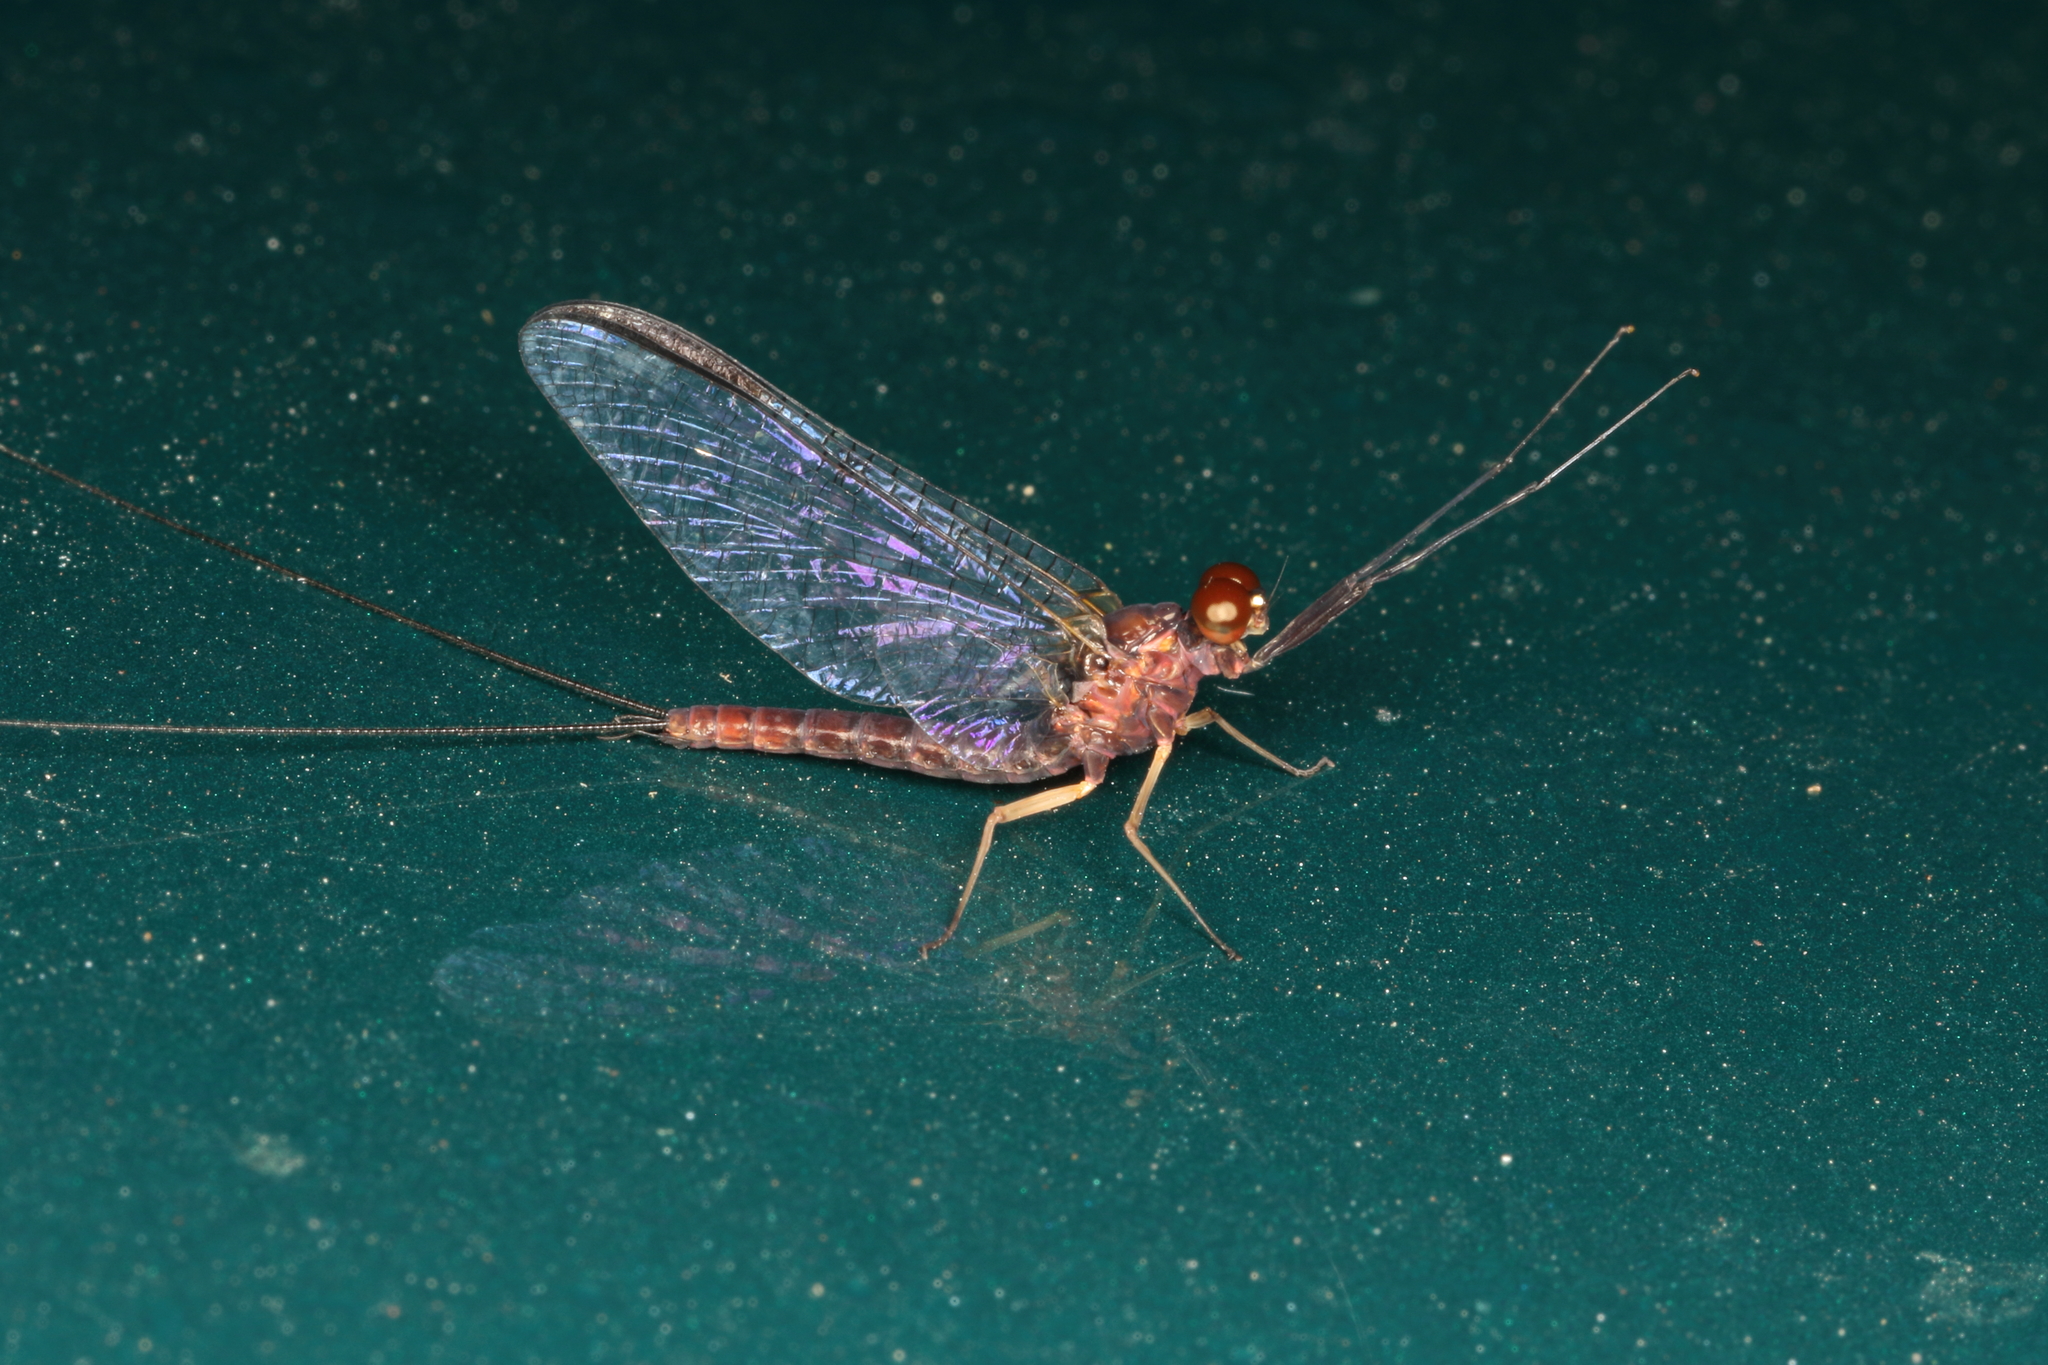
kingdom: Animalia
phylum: Arthropoda
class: Insecta
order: Ephemeroptera
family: Coloburiscidae
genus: Coloburiscus
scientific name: Coloburiscus humeralis
